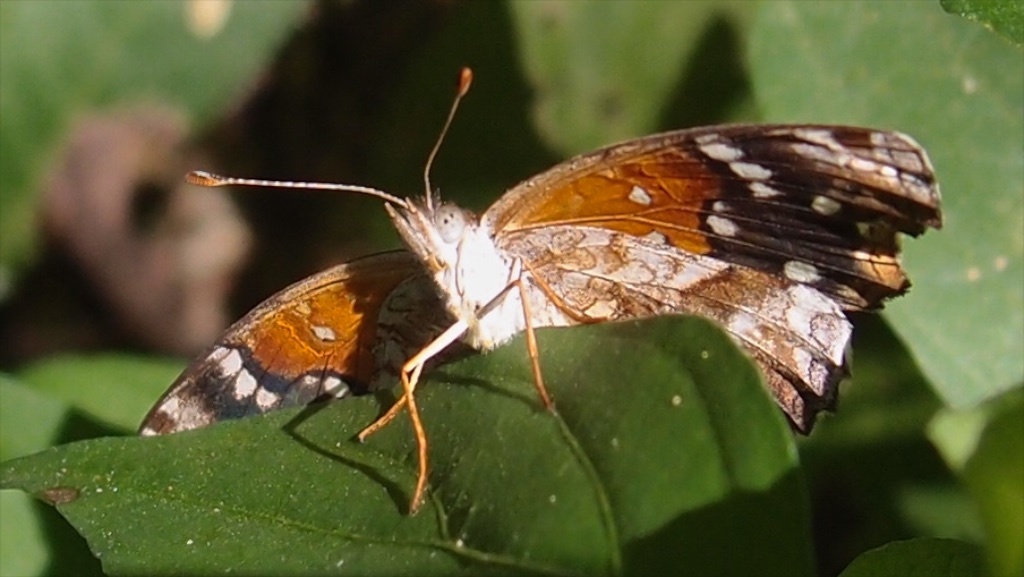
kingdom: Animalia
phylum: Arthropoda
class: Insecta
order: Lepidoptera
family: Nymphalidae
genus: Anthanassa
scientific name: Anthanassa texana
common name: Texan crescent
